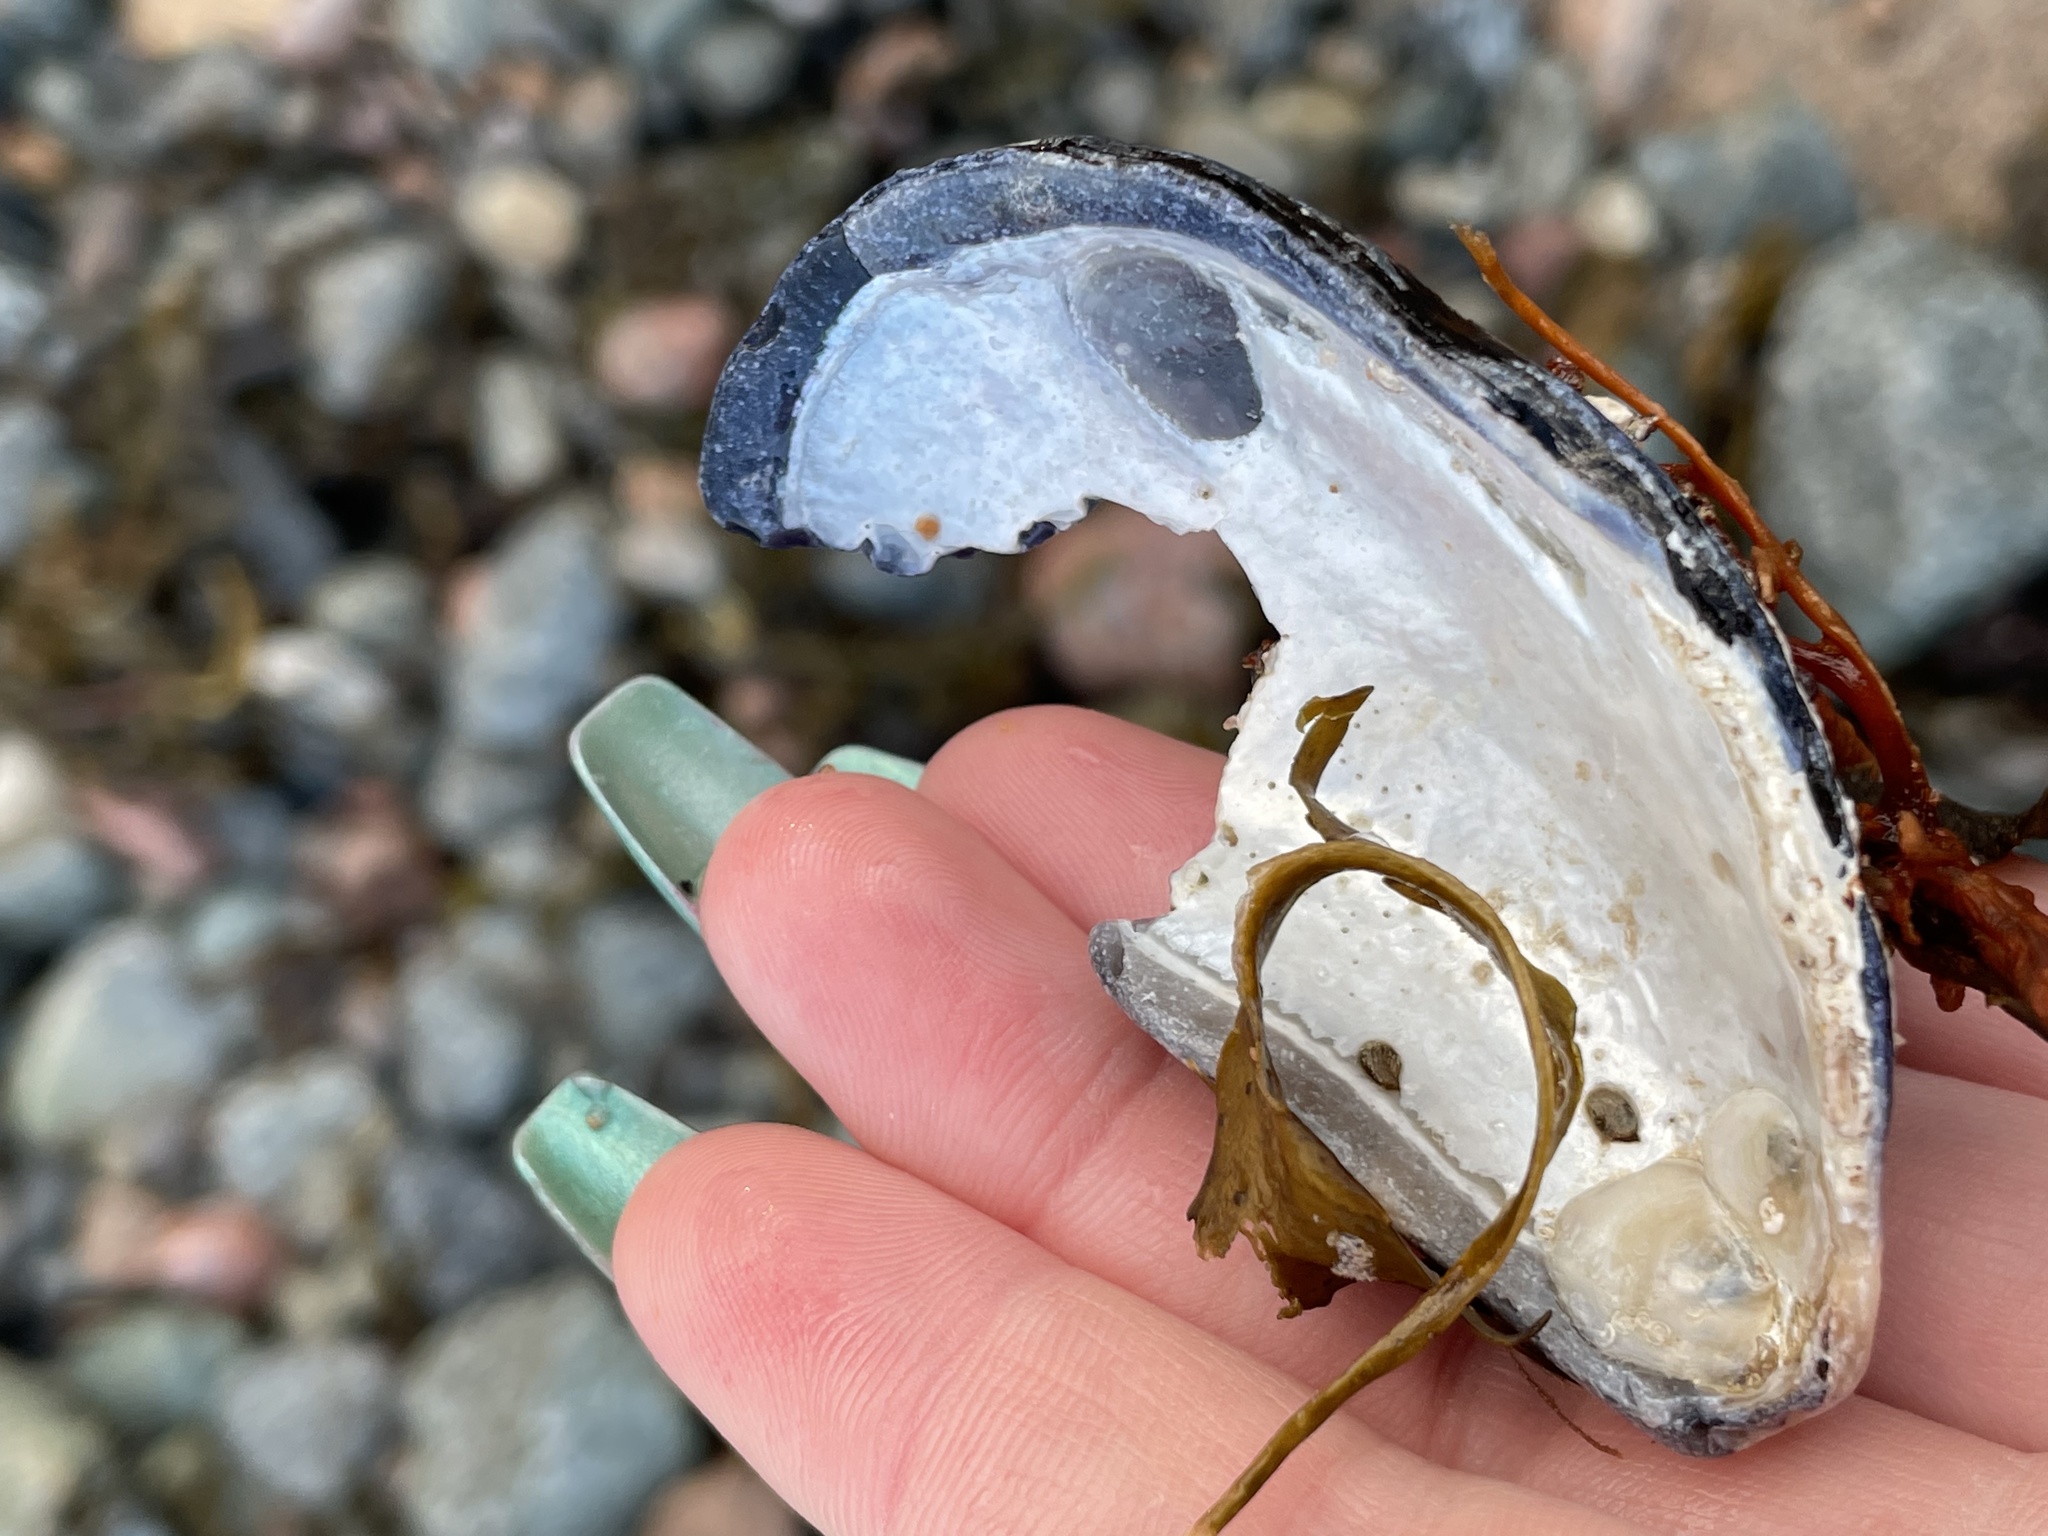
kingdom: Animalia
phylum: Mollusca
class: Bivalvia
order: Mytilida
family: Mytilidae
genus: Mytilus
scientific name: Mytilus edulis
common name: Blue mussel
